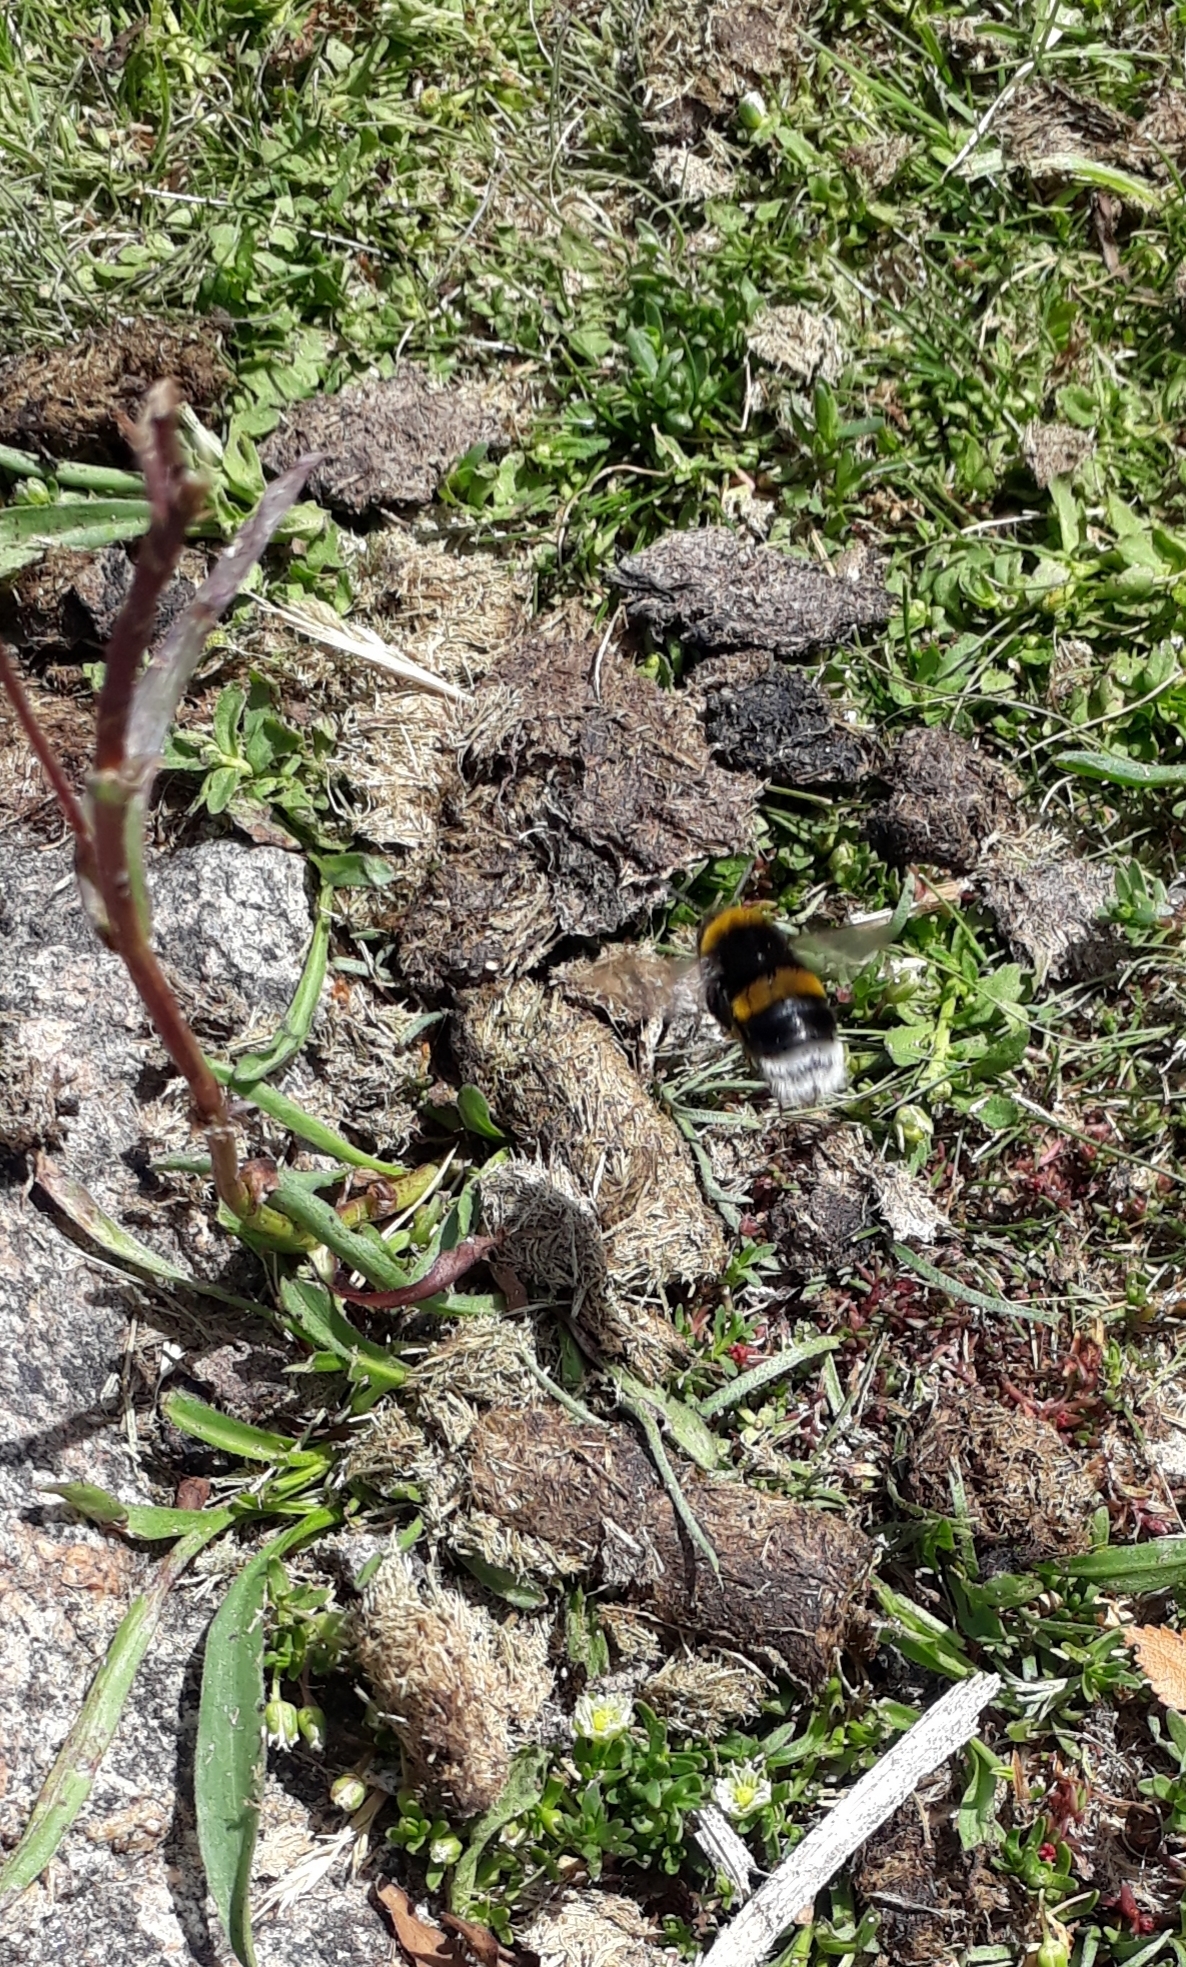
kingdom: Animalia
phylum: Arthropoda
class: Insecta
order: Hymenoptera
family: Apidae
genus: Bombus
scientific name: Bombus terrestris
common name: Buff-tailed bumblebee
